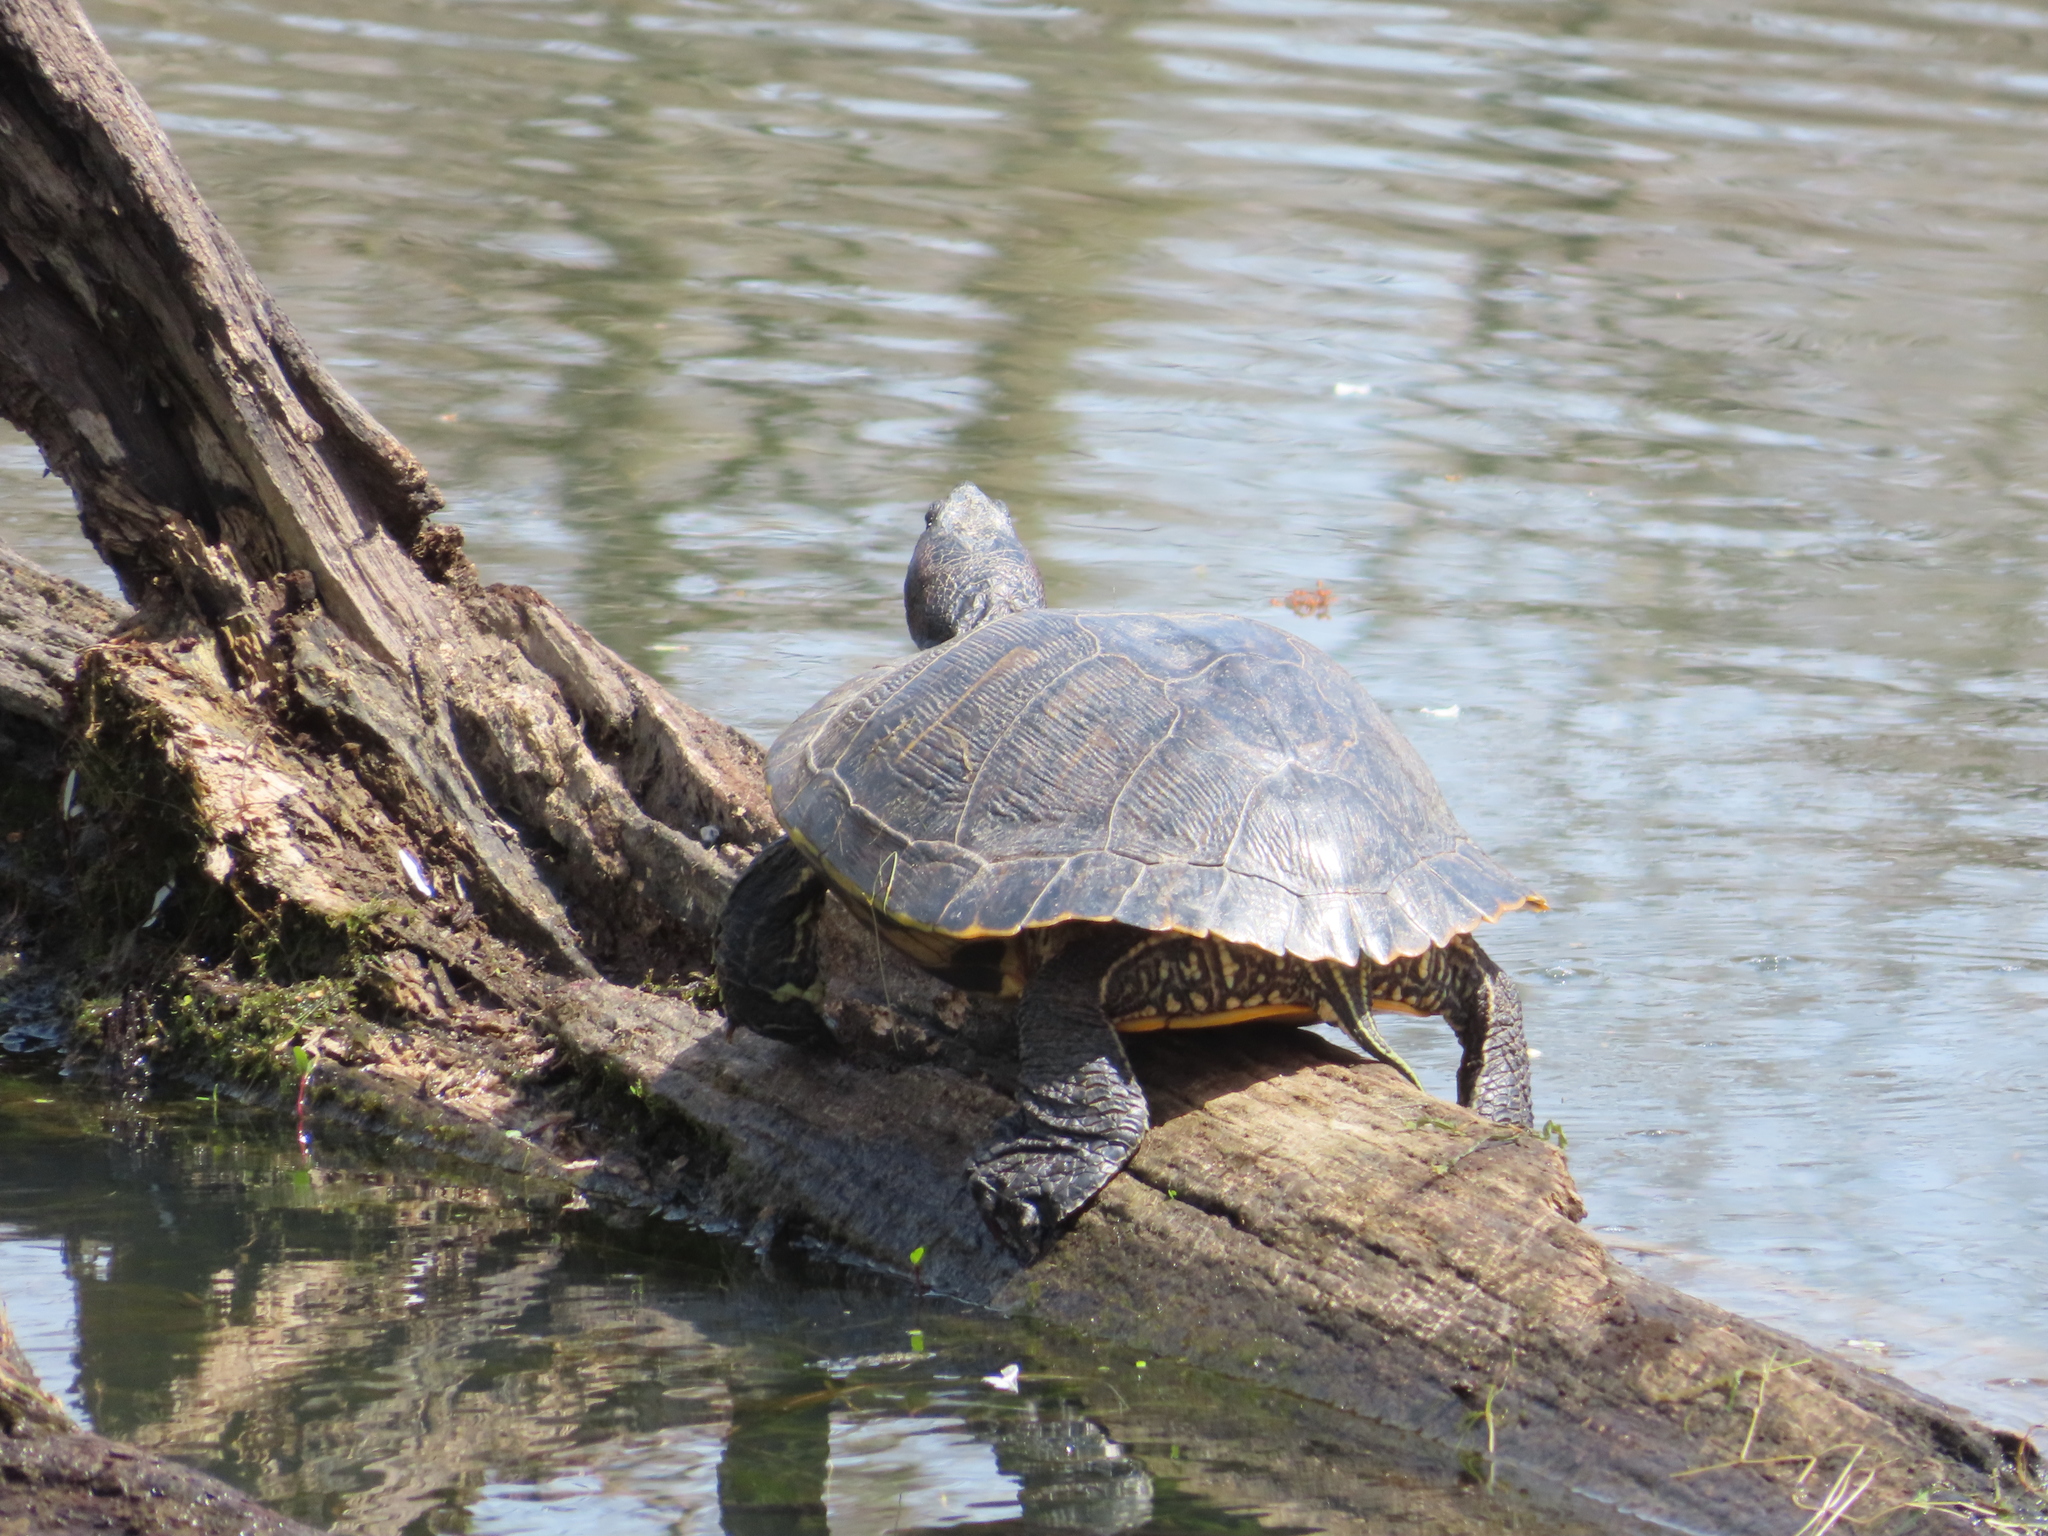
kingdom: Animalia
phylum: Chordata
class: Testudines
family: Emydidae
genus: Trachemys
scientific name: Trachemys scripta
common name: Slider
